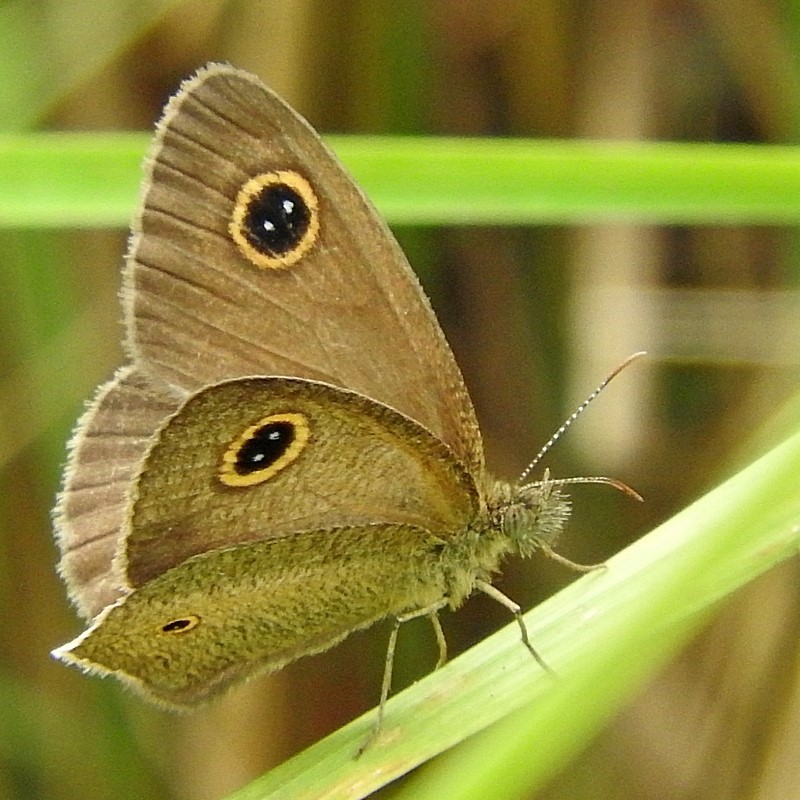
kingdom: Animalia
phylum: Arthropoda
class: Insecta
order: Lepidoptera
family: Nymphalidae
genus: Ypthima
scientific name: Ypthima arctous
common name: Dusky knight
